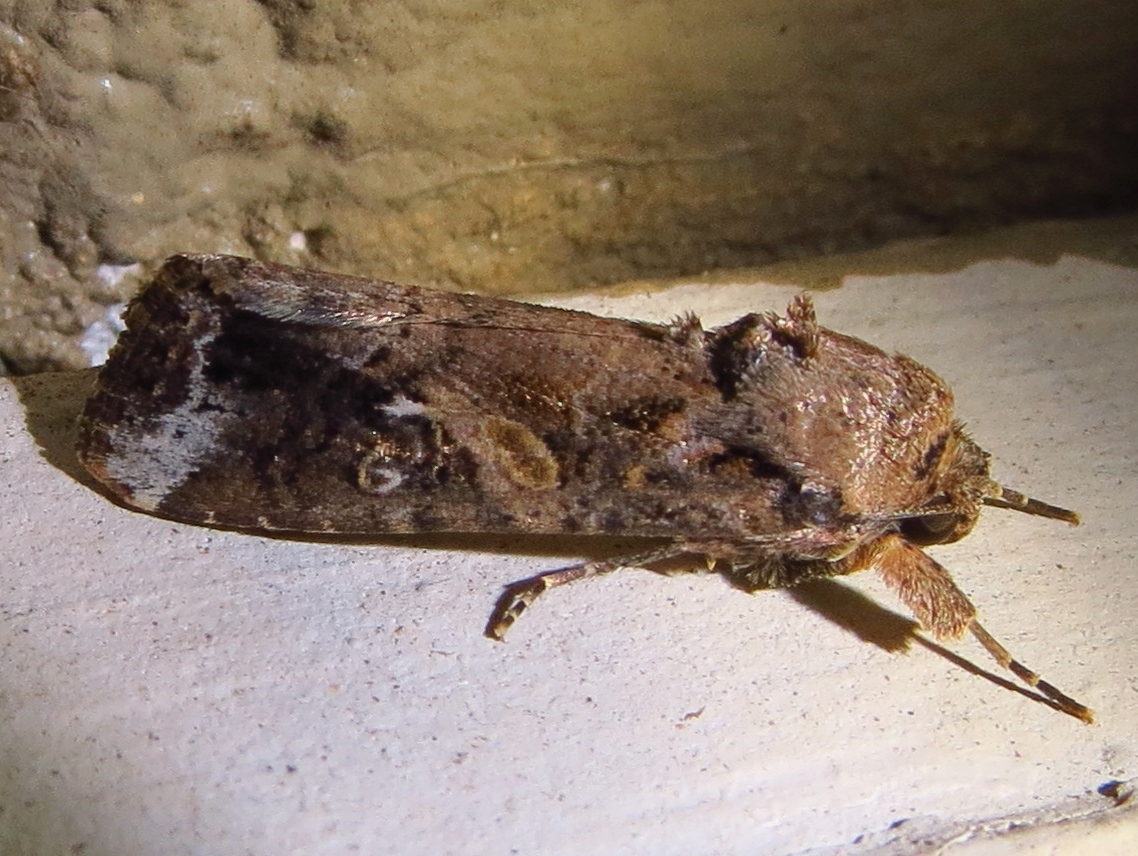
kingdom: Animalia
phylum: Arthropoda
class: Insecta
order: Lepidoptera
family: Noctuidae
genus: Spodoptera
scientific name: Spodoptera frugiperda
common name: Fall armyworm
